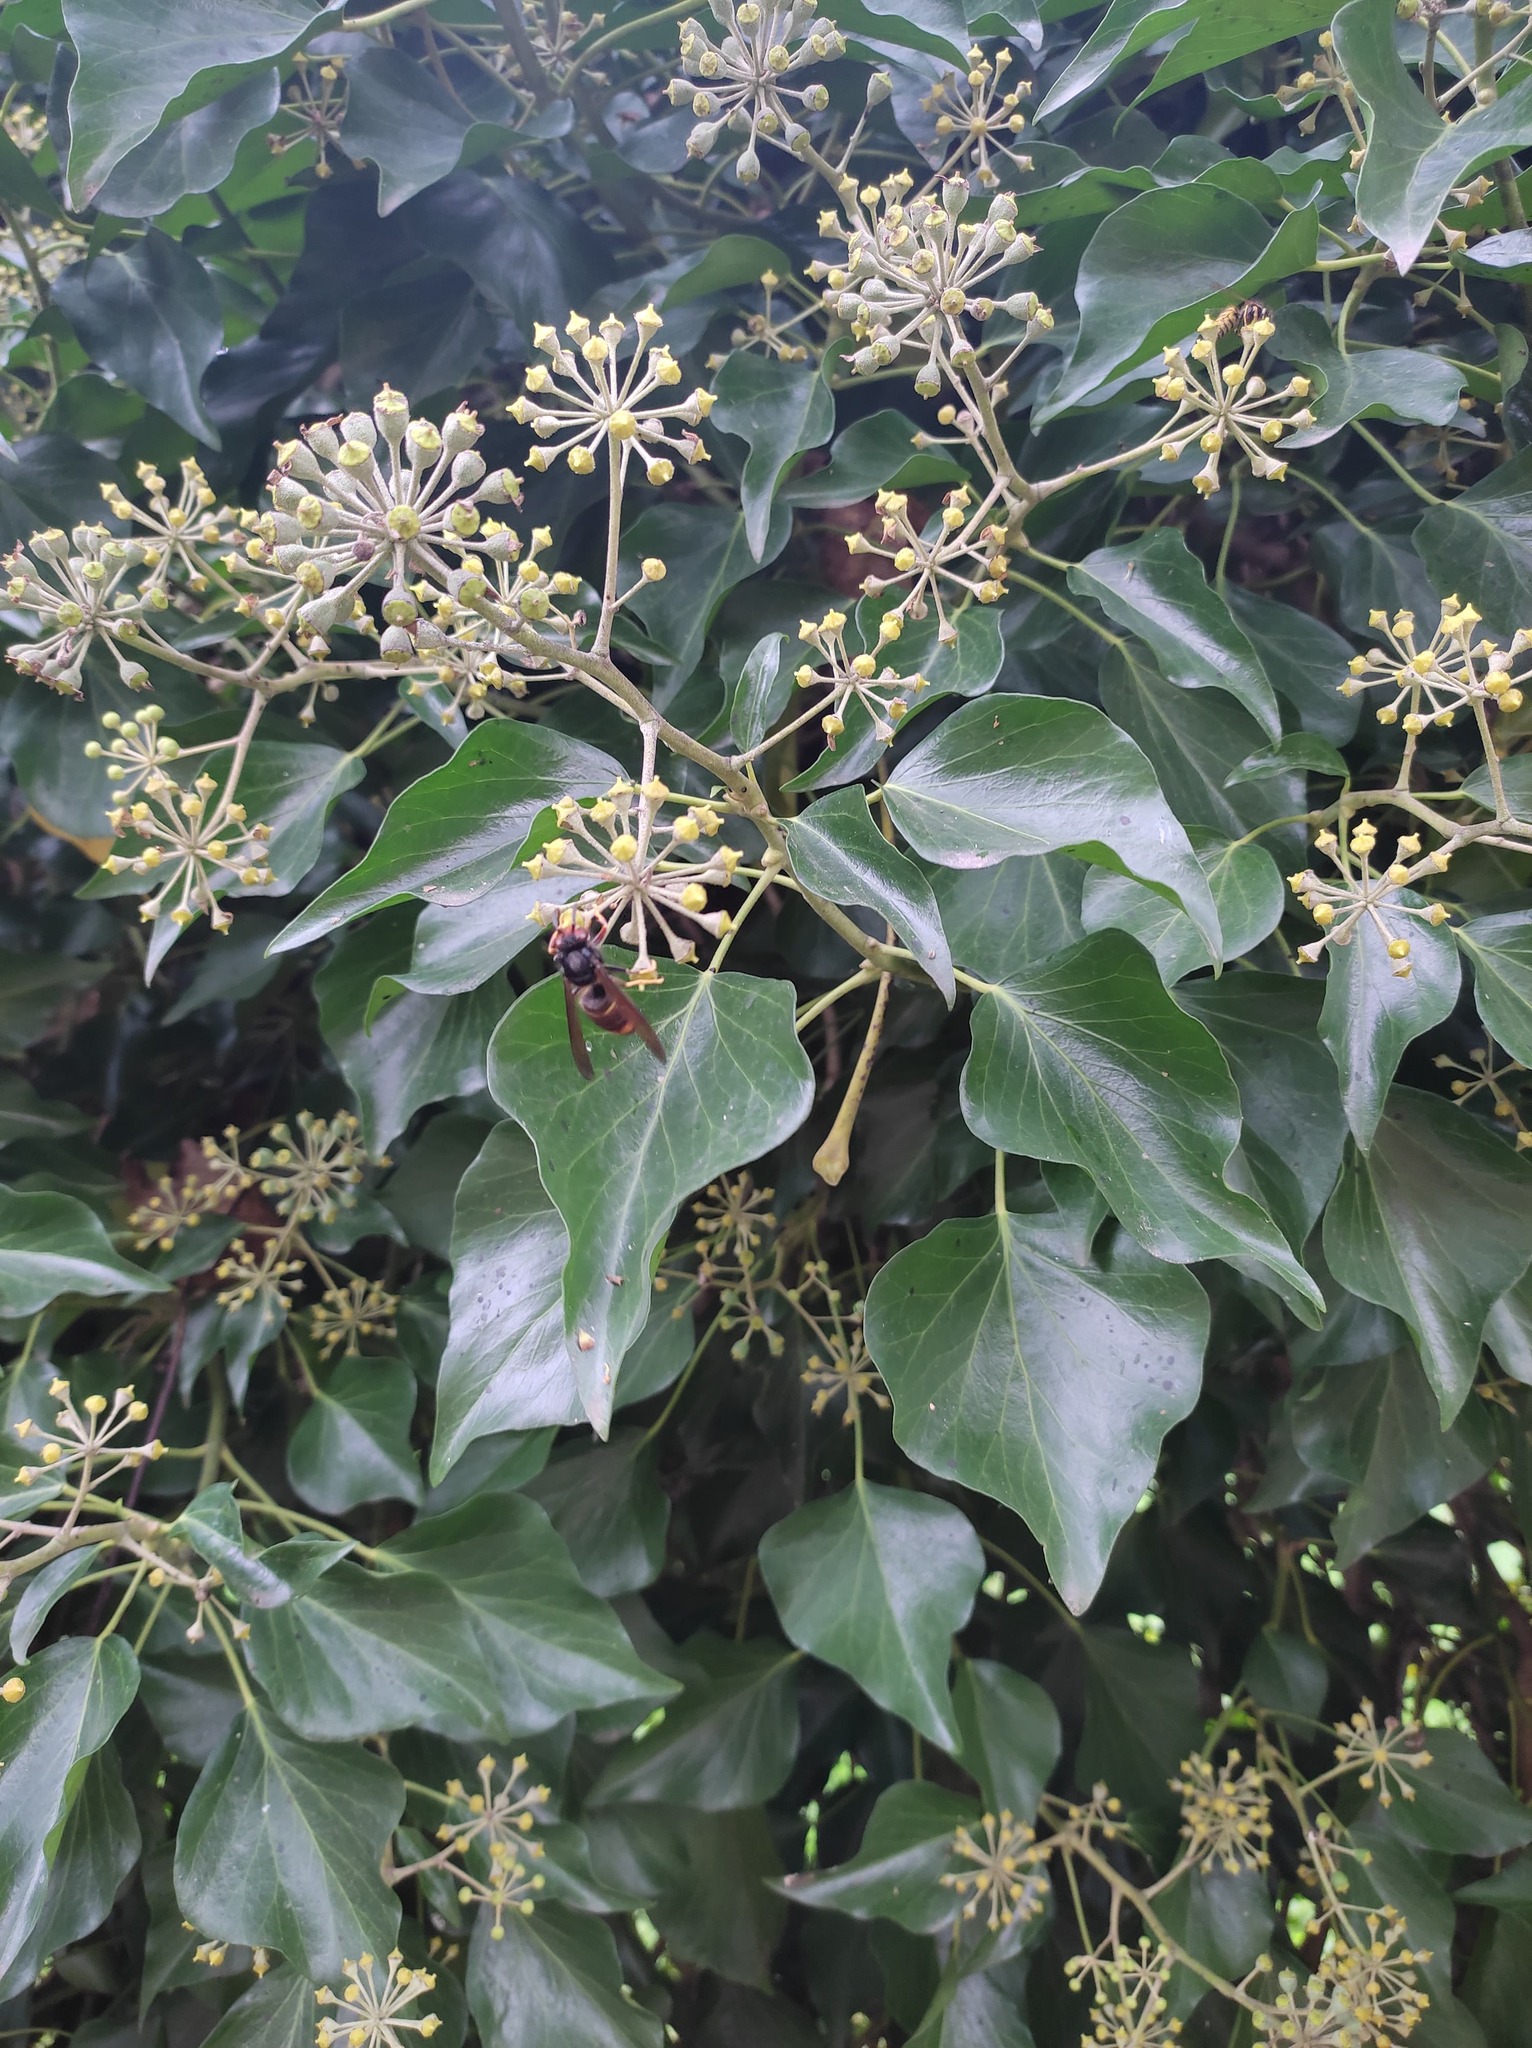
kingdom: Animalia
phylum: Arthropoda
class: Insecta
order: Hymenoptera
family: Vespidae
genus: Vespa
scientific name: Vespa velutina
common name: Asian hornet
